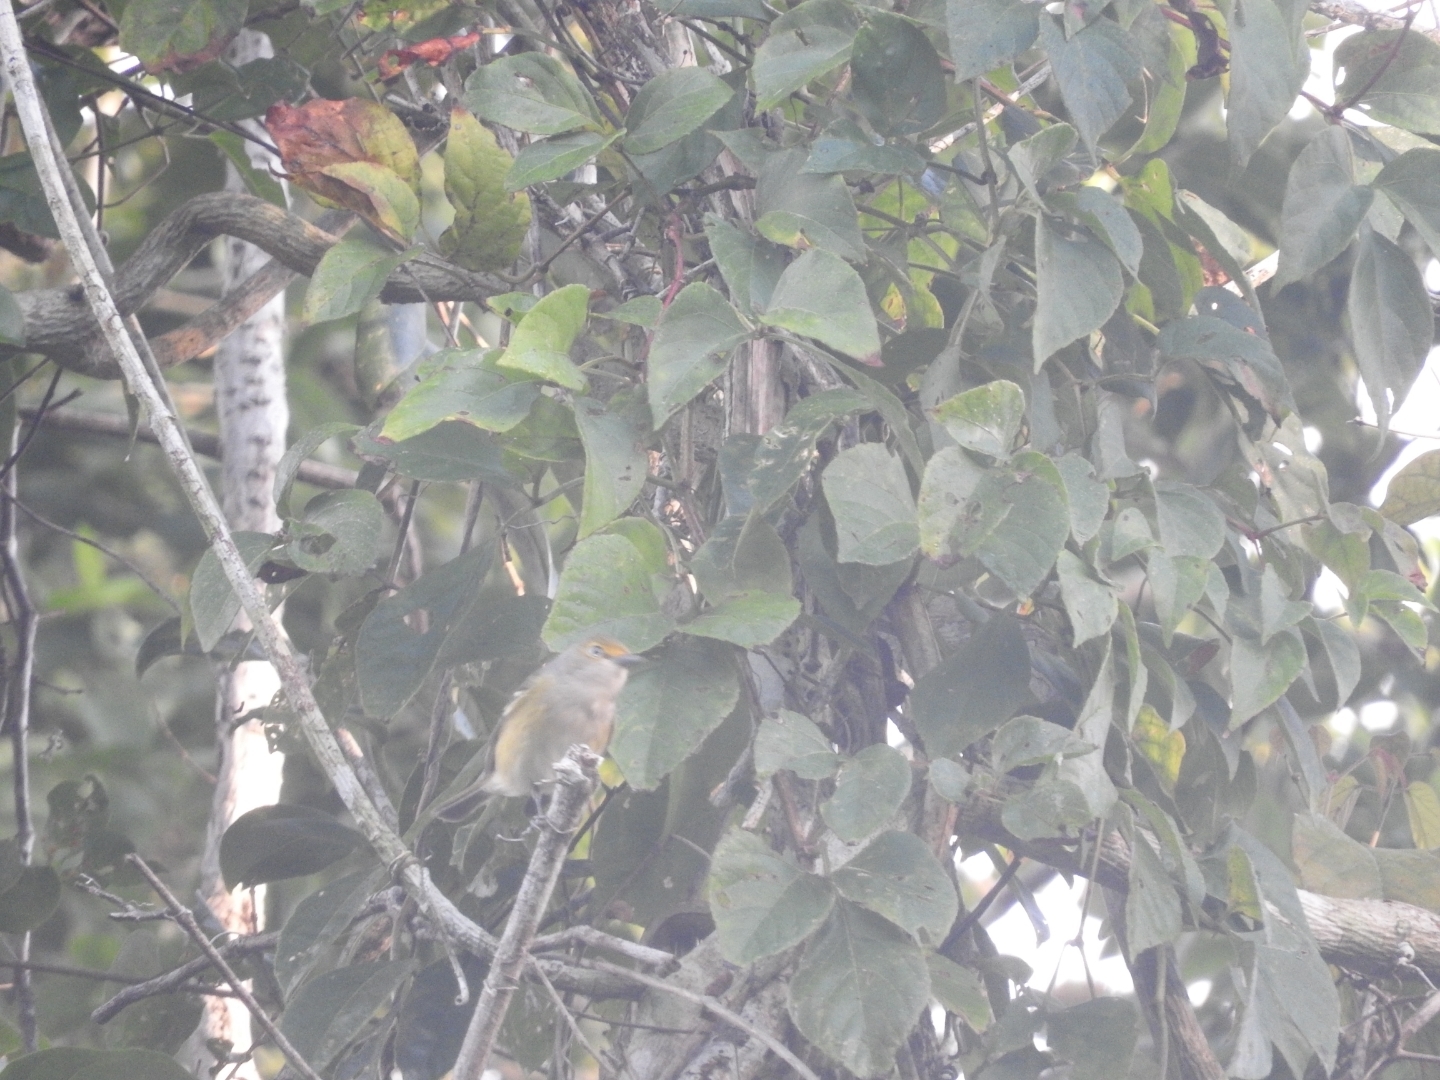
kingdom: Animalia
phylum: Chordata
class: Aves
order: Passeriformes
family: Vireonidae
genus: Vireo
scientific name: Vireo griseus
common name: White-eyed vireo
